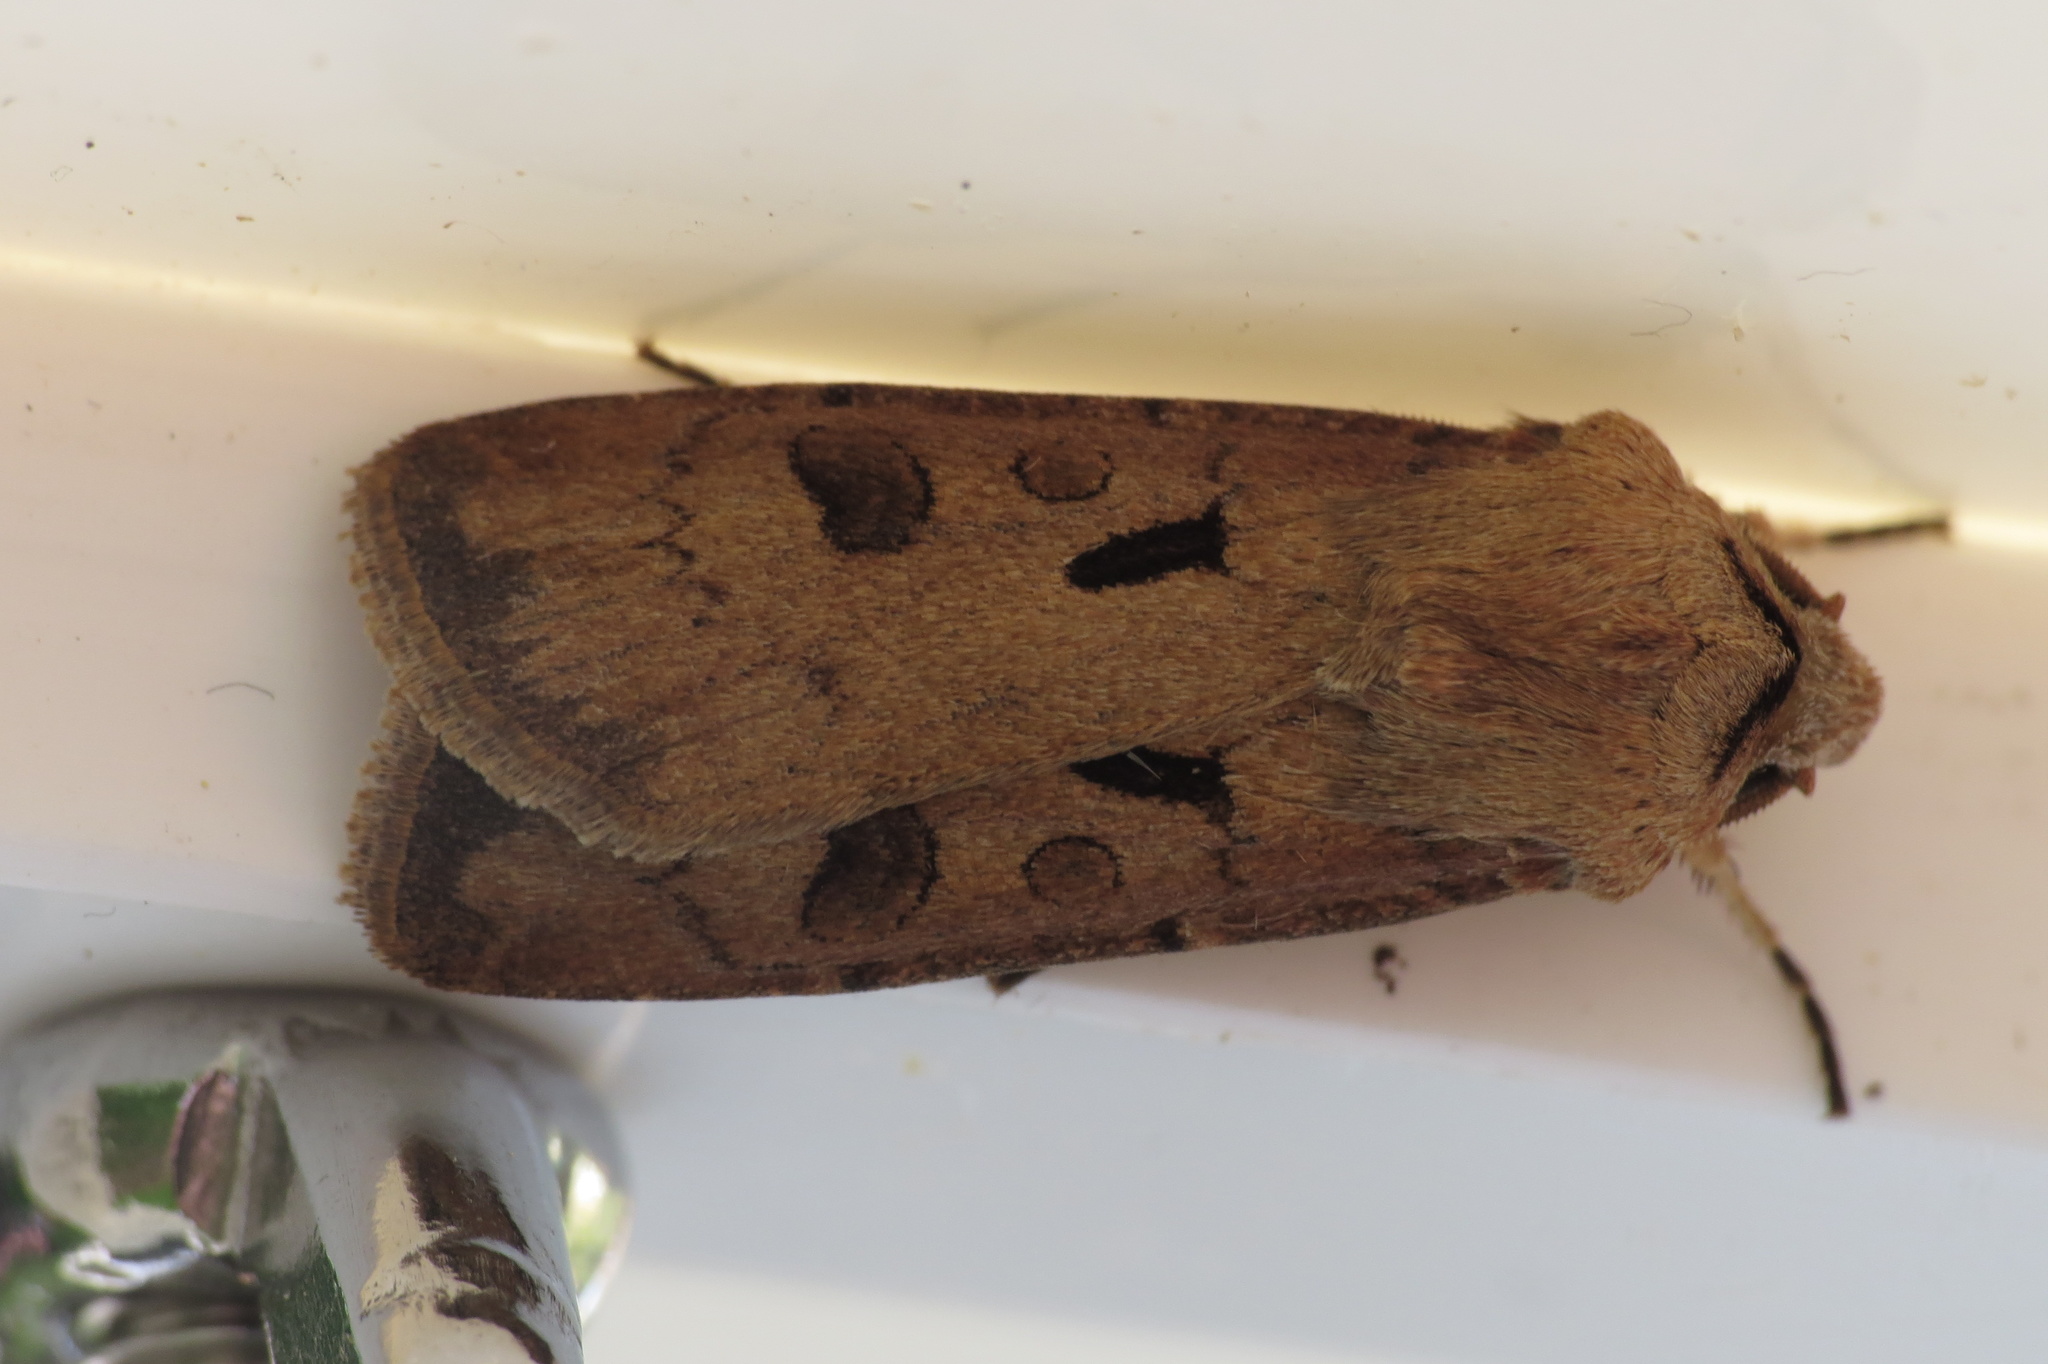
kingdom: Animalia
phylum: Arthropoda
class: Insecta
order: Lepidoptera
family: Noctuidae
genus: Agrotis
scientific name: Agrotis exclamationis
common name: Heart and dart
